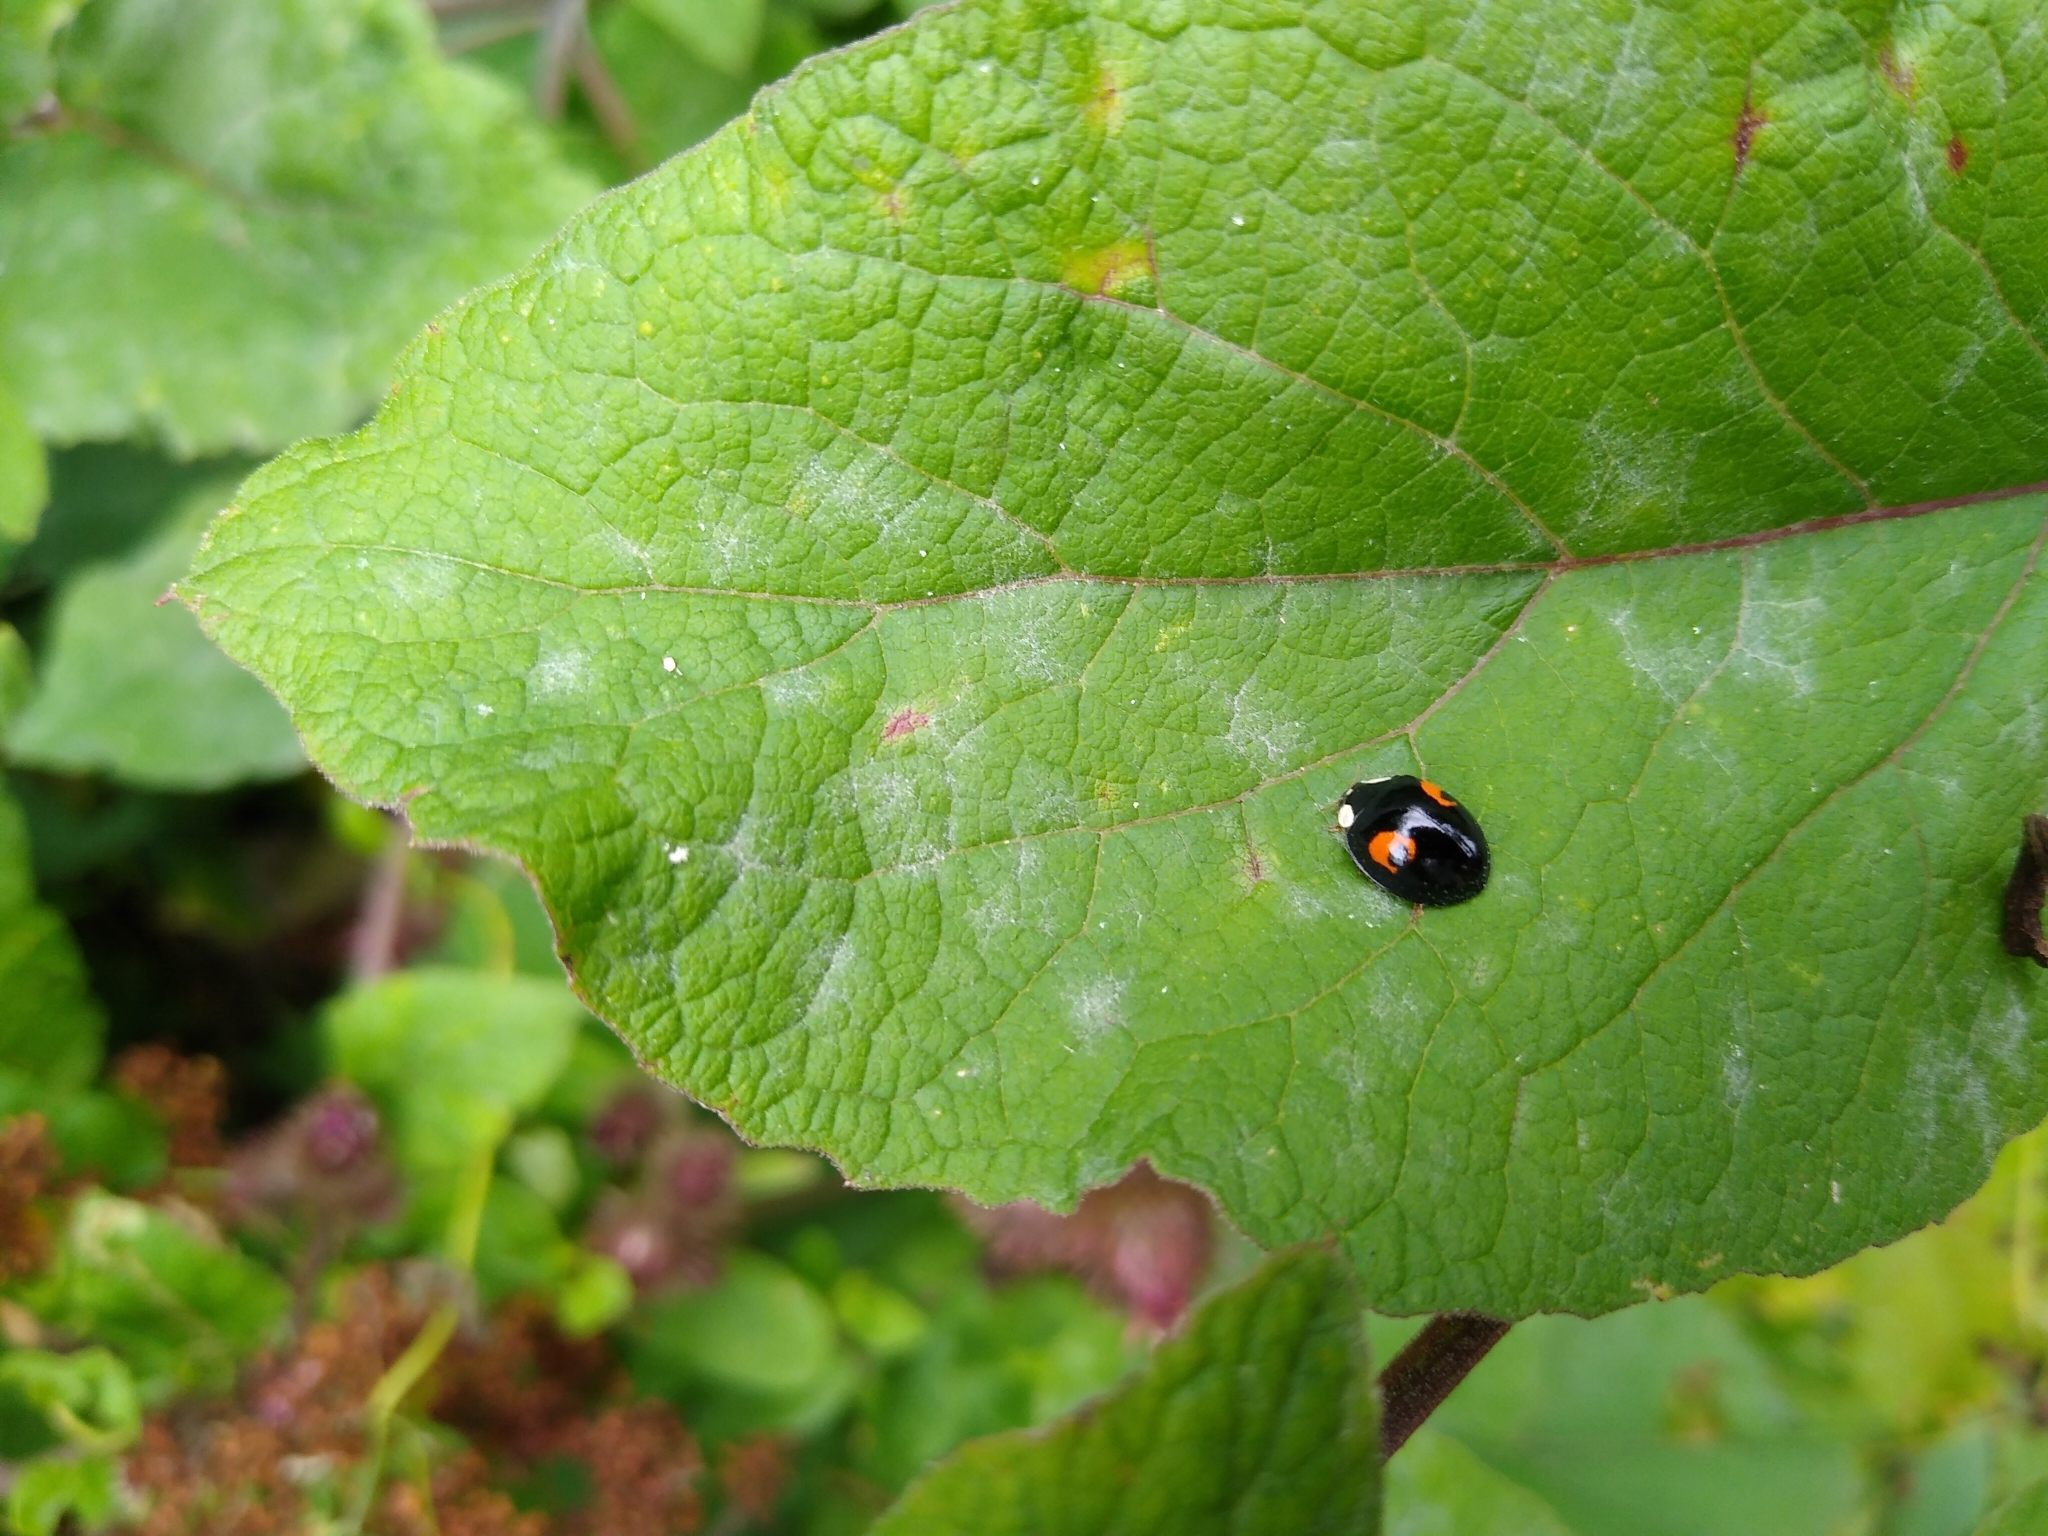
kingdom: Animalia
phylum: Arthropoda
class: Insecta
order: Coleoptera
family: Coccinellidae
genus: Harmonia
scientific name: Harmonia axyridis
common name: Harlequin ladybird
